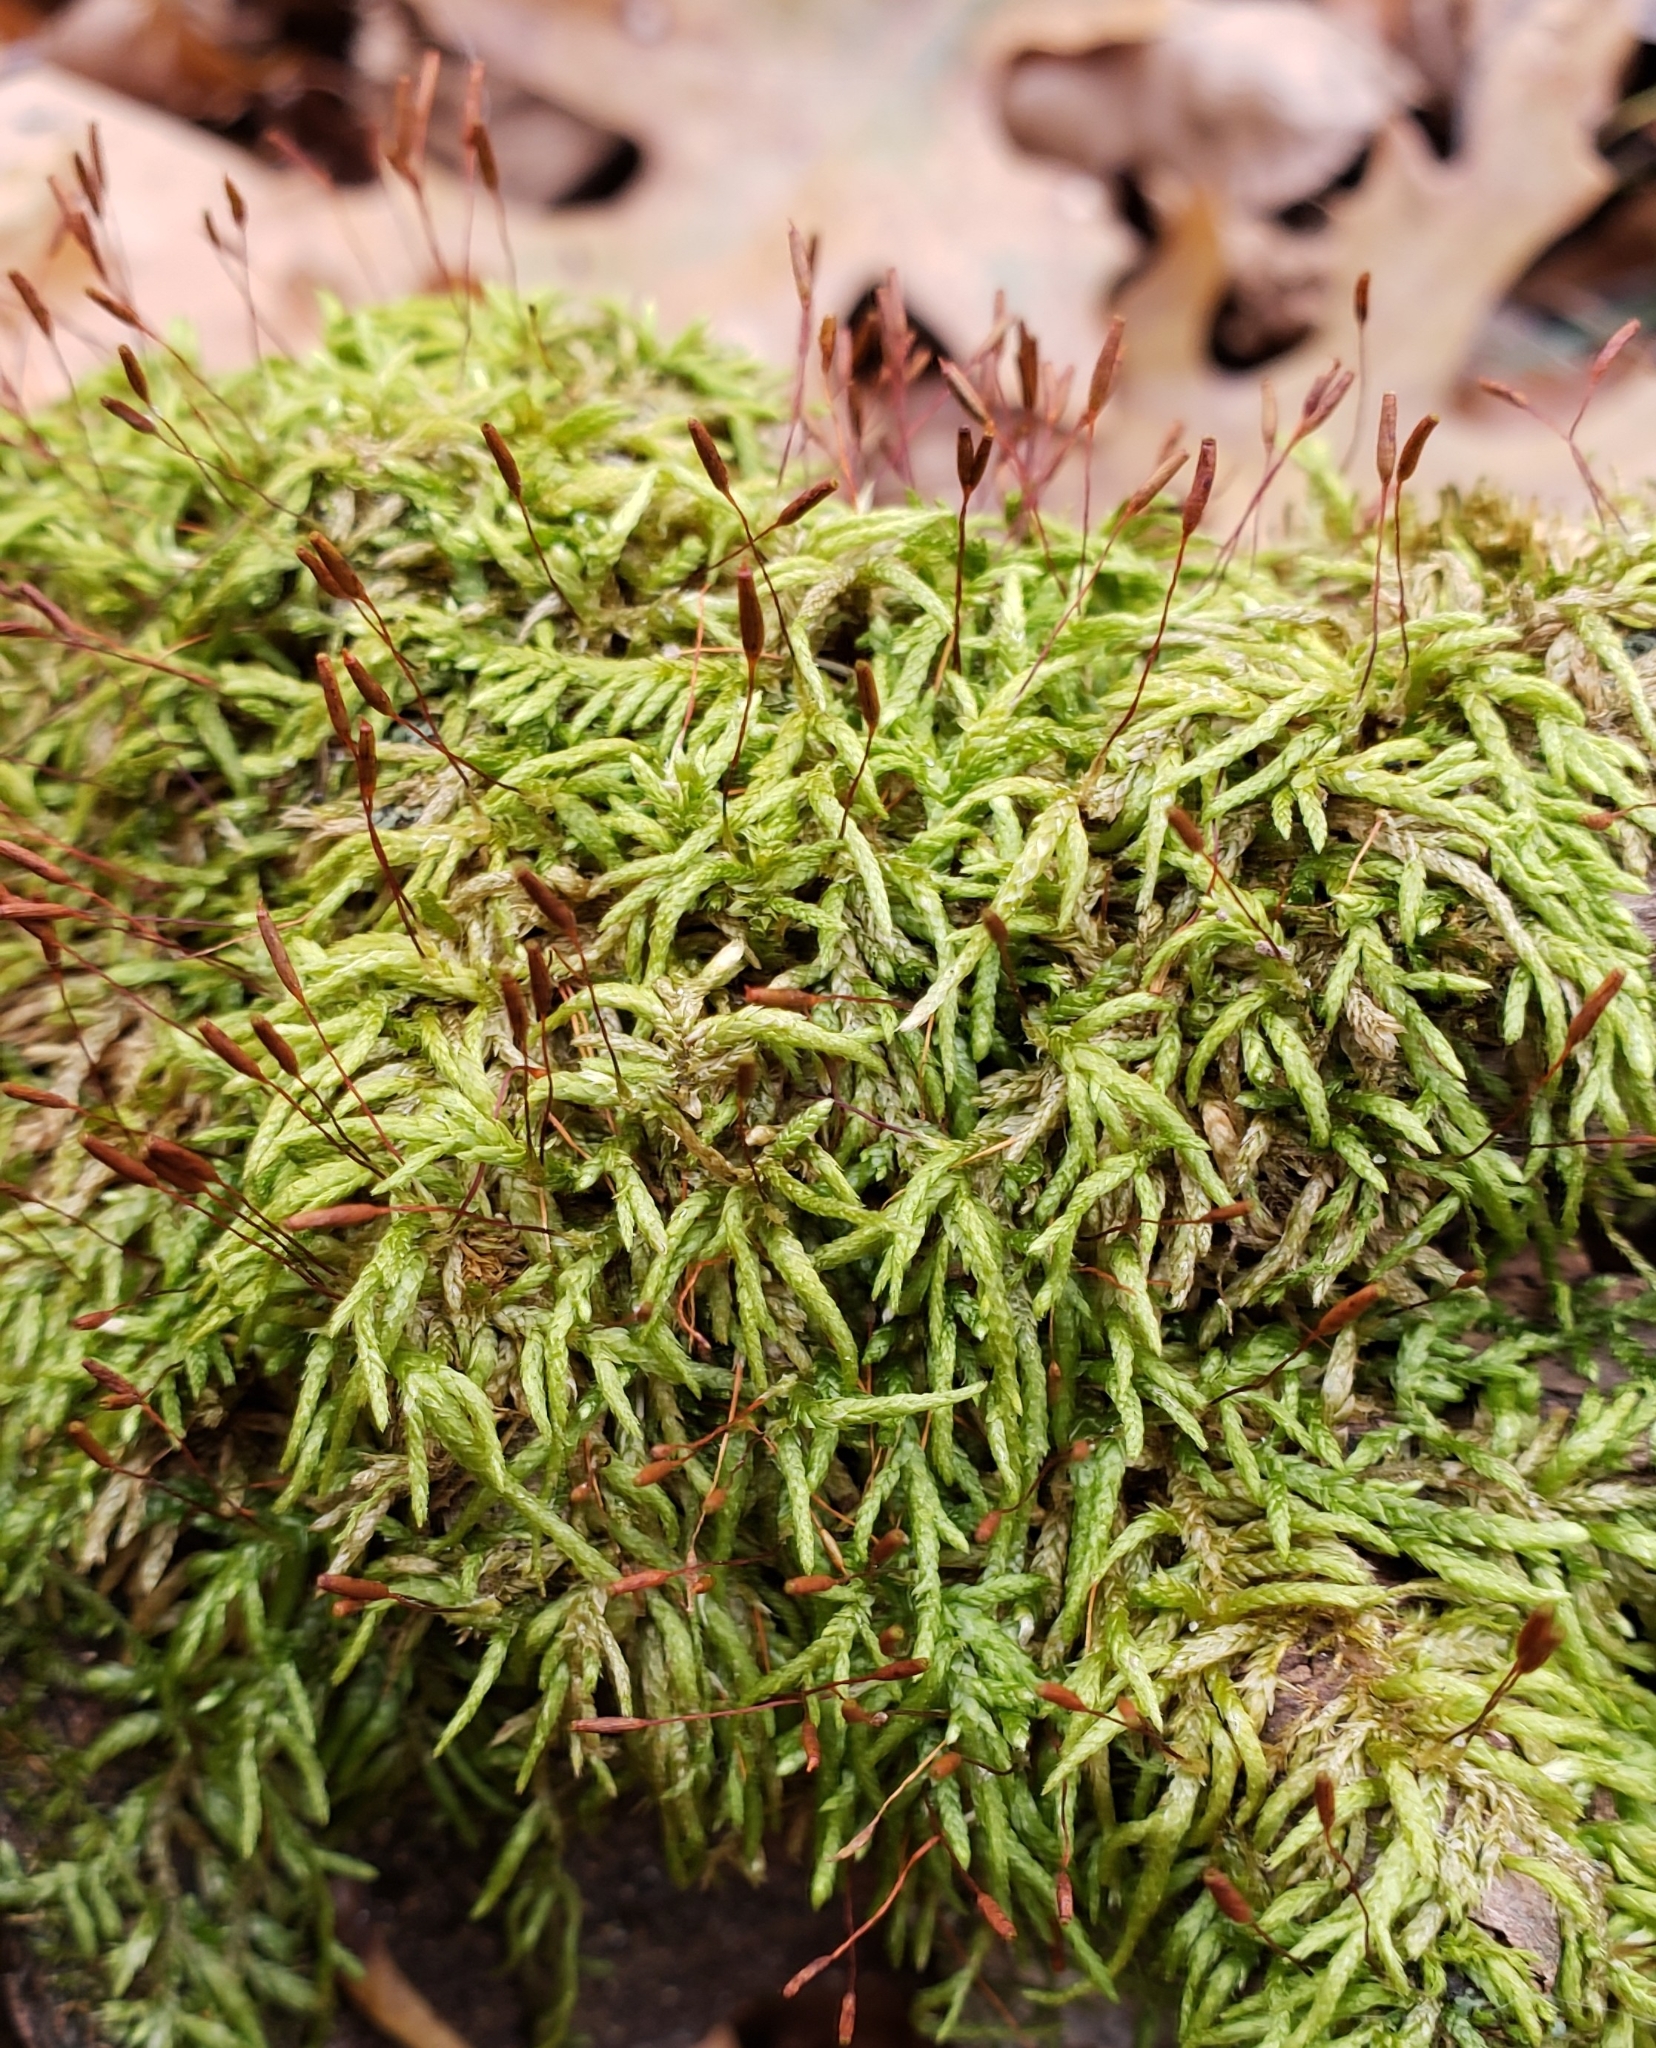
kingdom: Plantae
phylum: Bryophyta
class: Bryopsida
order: Hypnales
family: Entodontaceae
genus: Entodon
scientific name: Entodon seductrix
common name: Round-stemmed entodon moss
